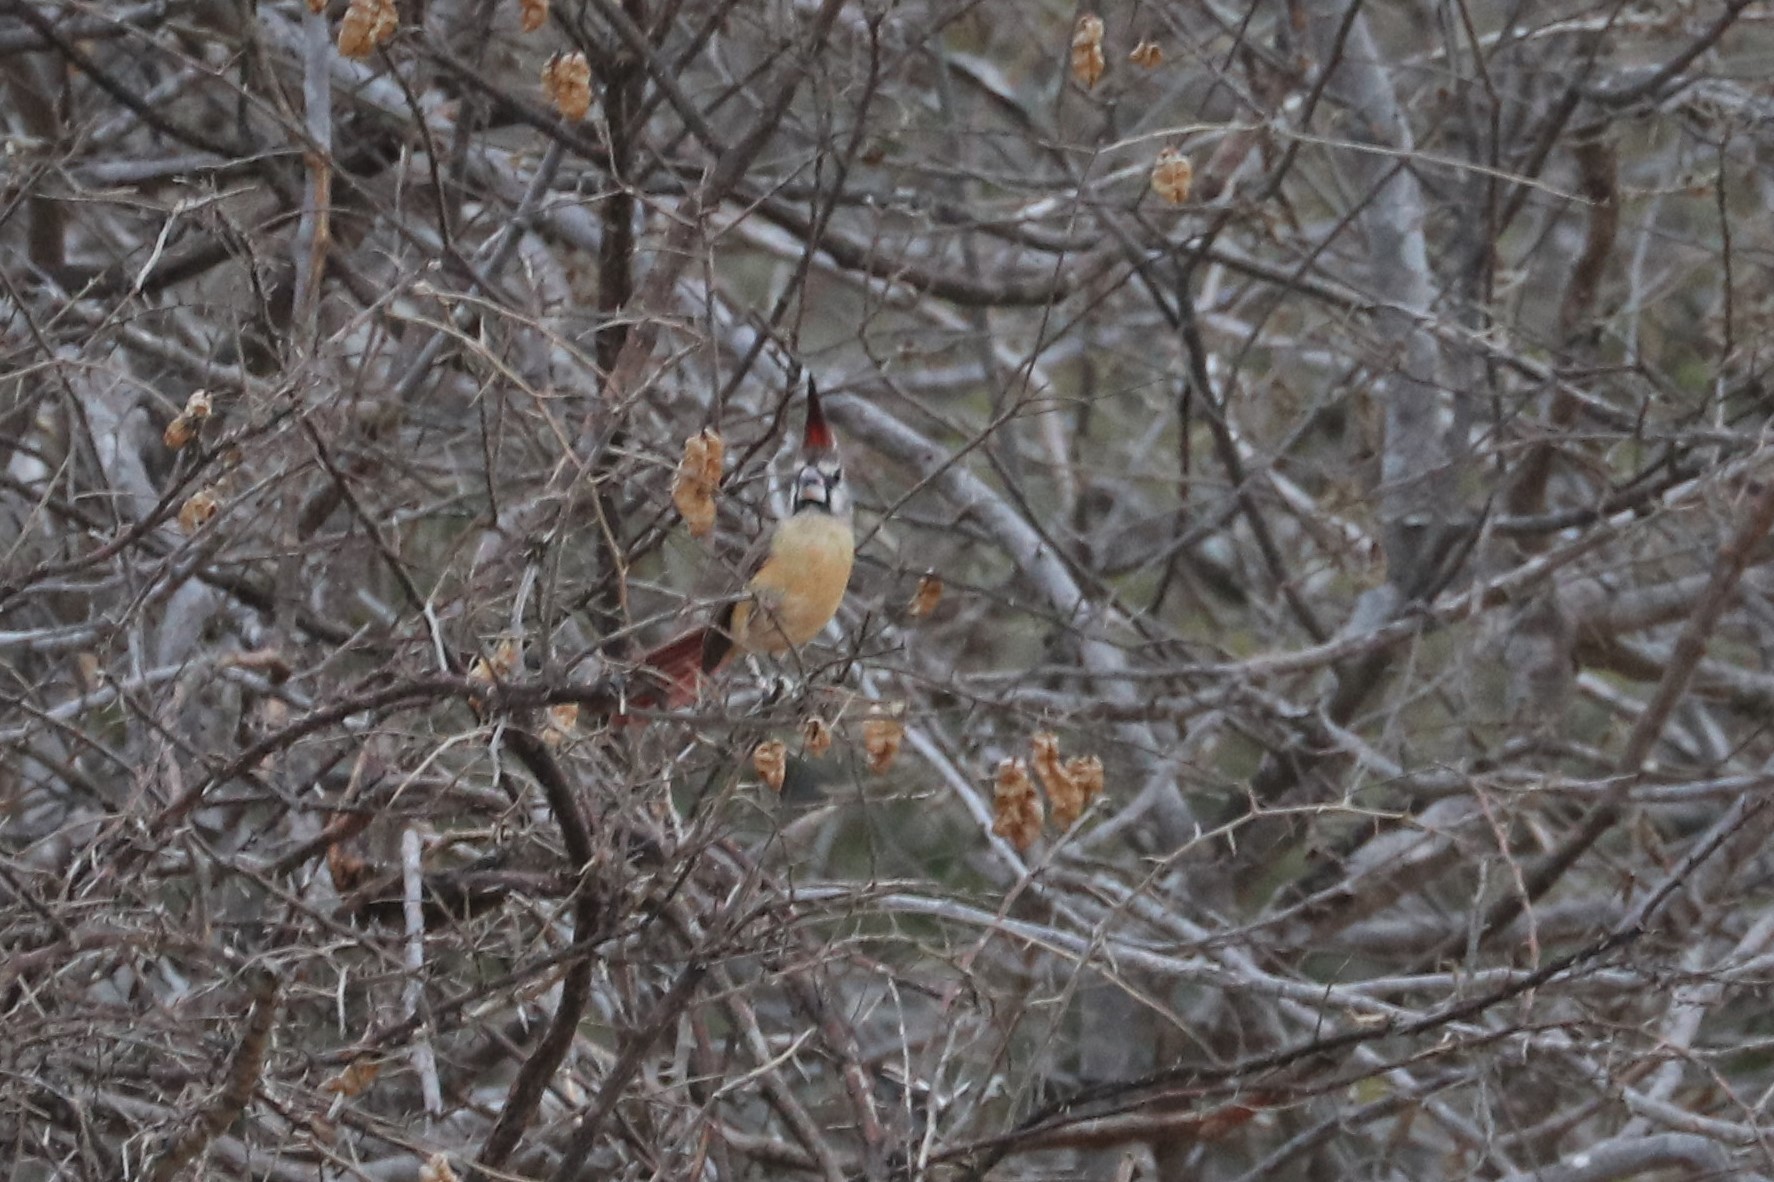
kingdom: Animalia
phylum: Chordata
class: Aves
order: Passeriformes
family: Cardinalidae
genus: Cardinalis
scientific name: Cardinalis phoeniceus
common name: Vermilion cardinal
